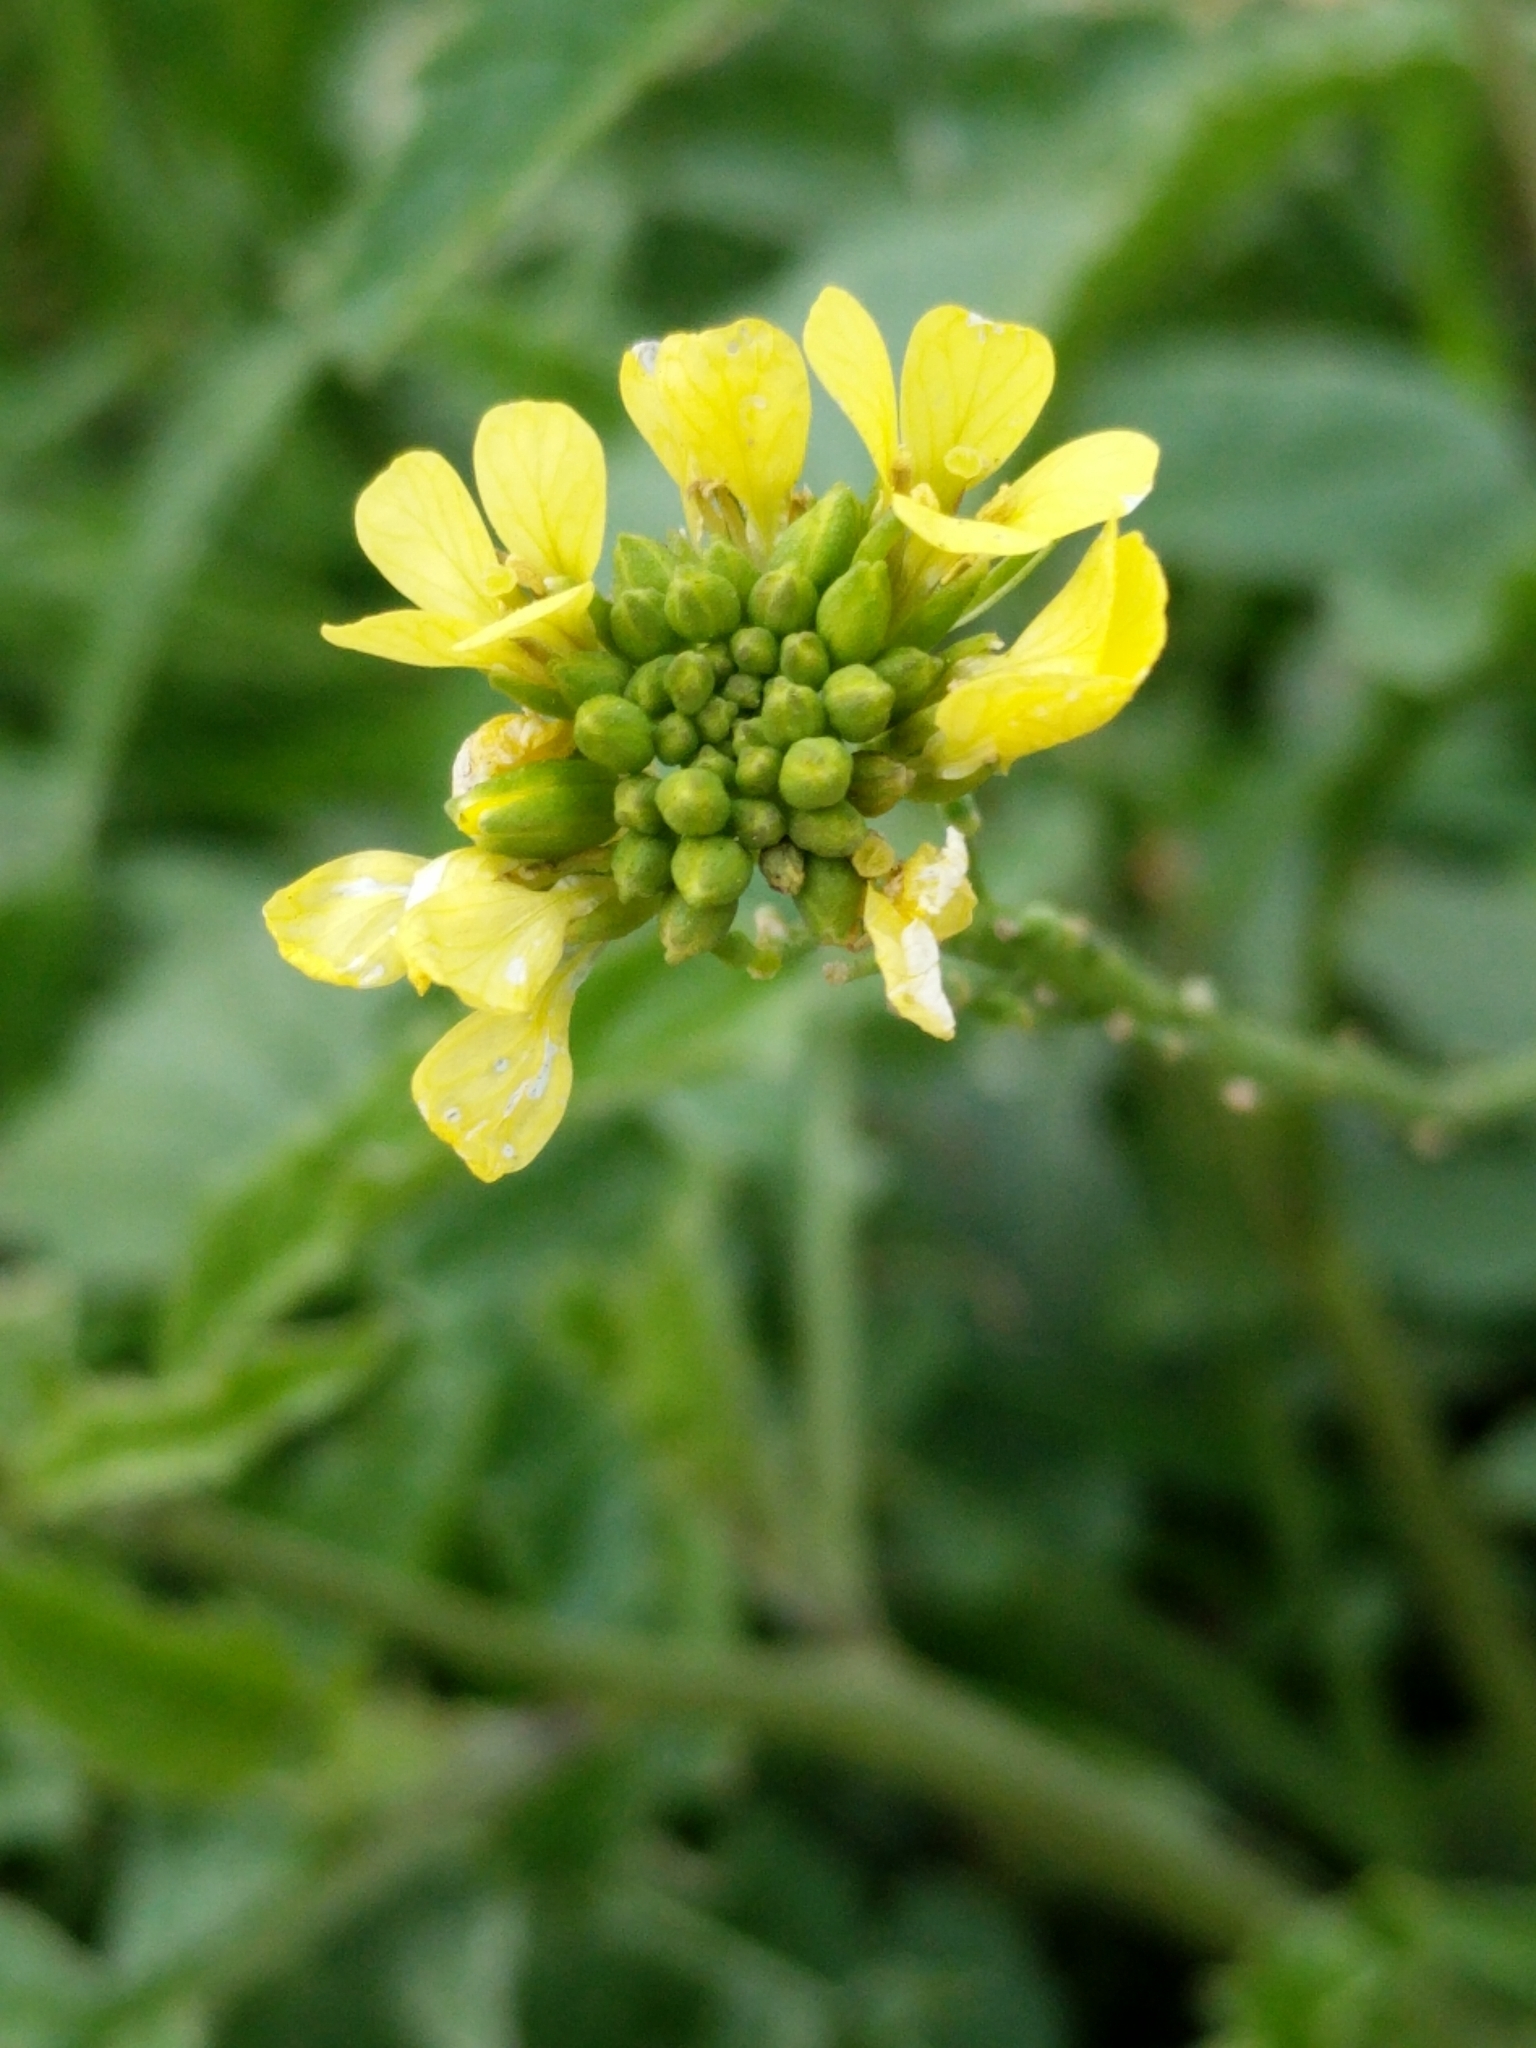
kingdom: Plantae
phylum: Tracheophyta
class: Magnoliopsida
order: Brassicales
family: Brassicaceae
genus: Rapistrum
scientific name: Rapistrum rugosum
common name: Annual bastardcabbage
